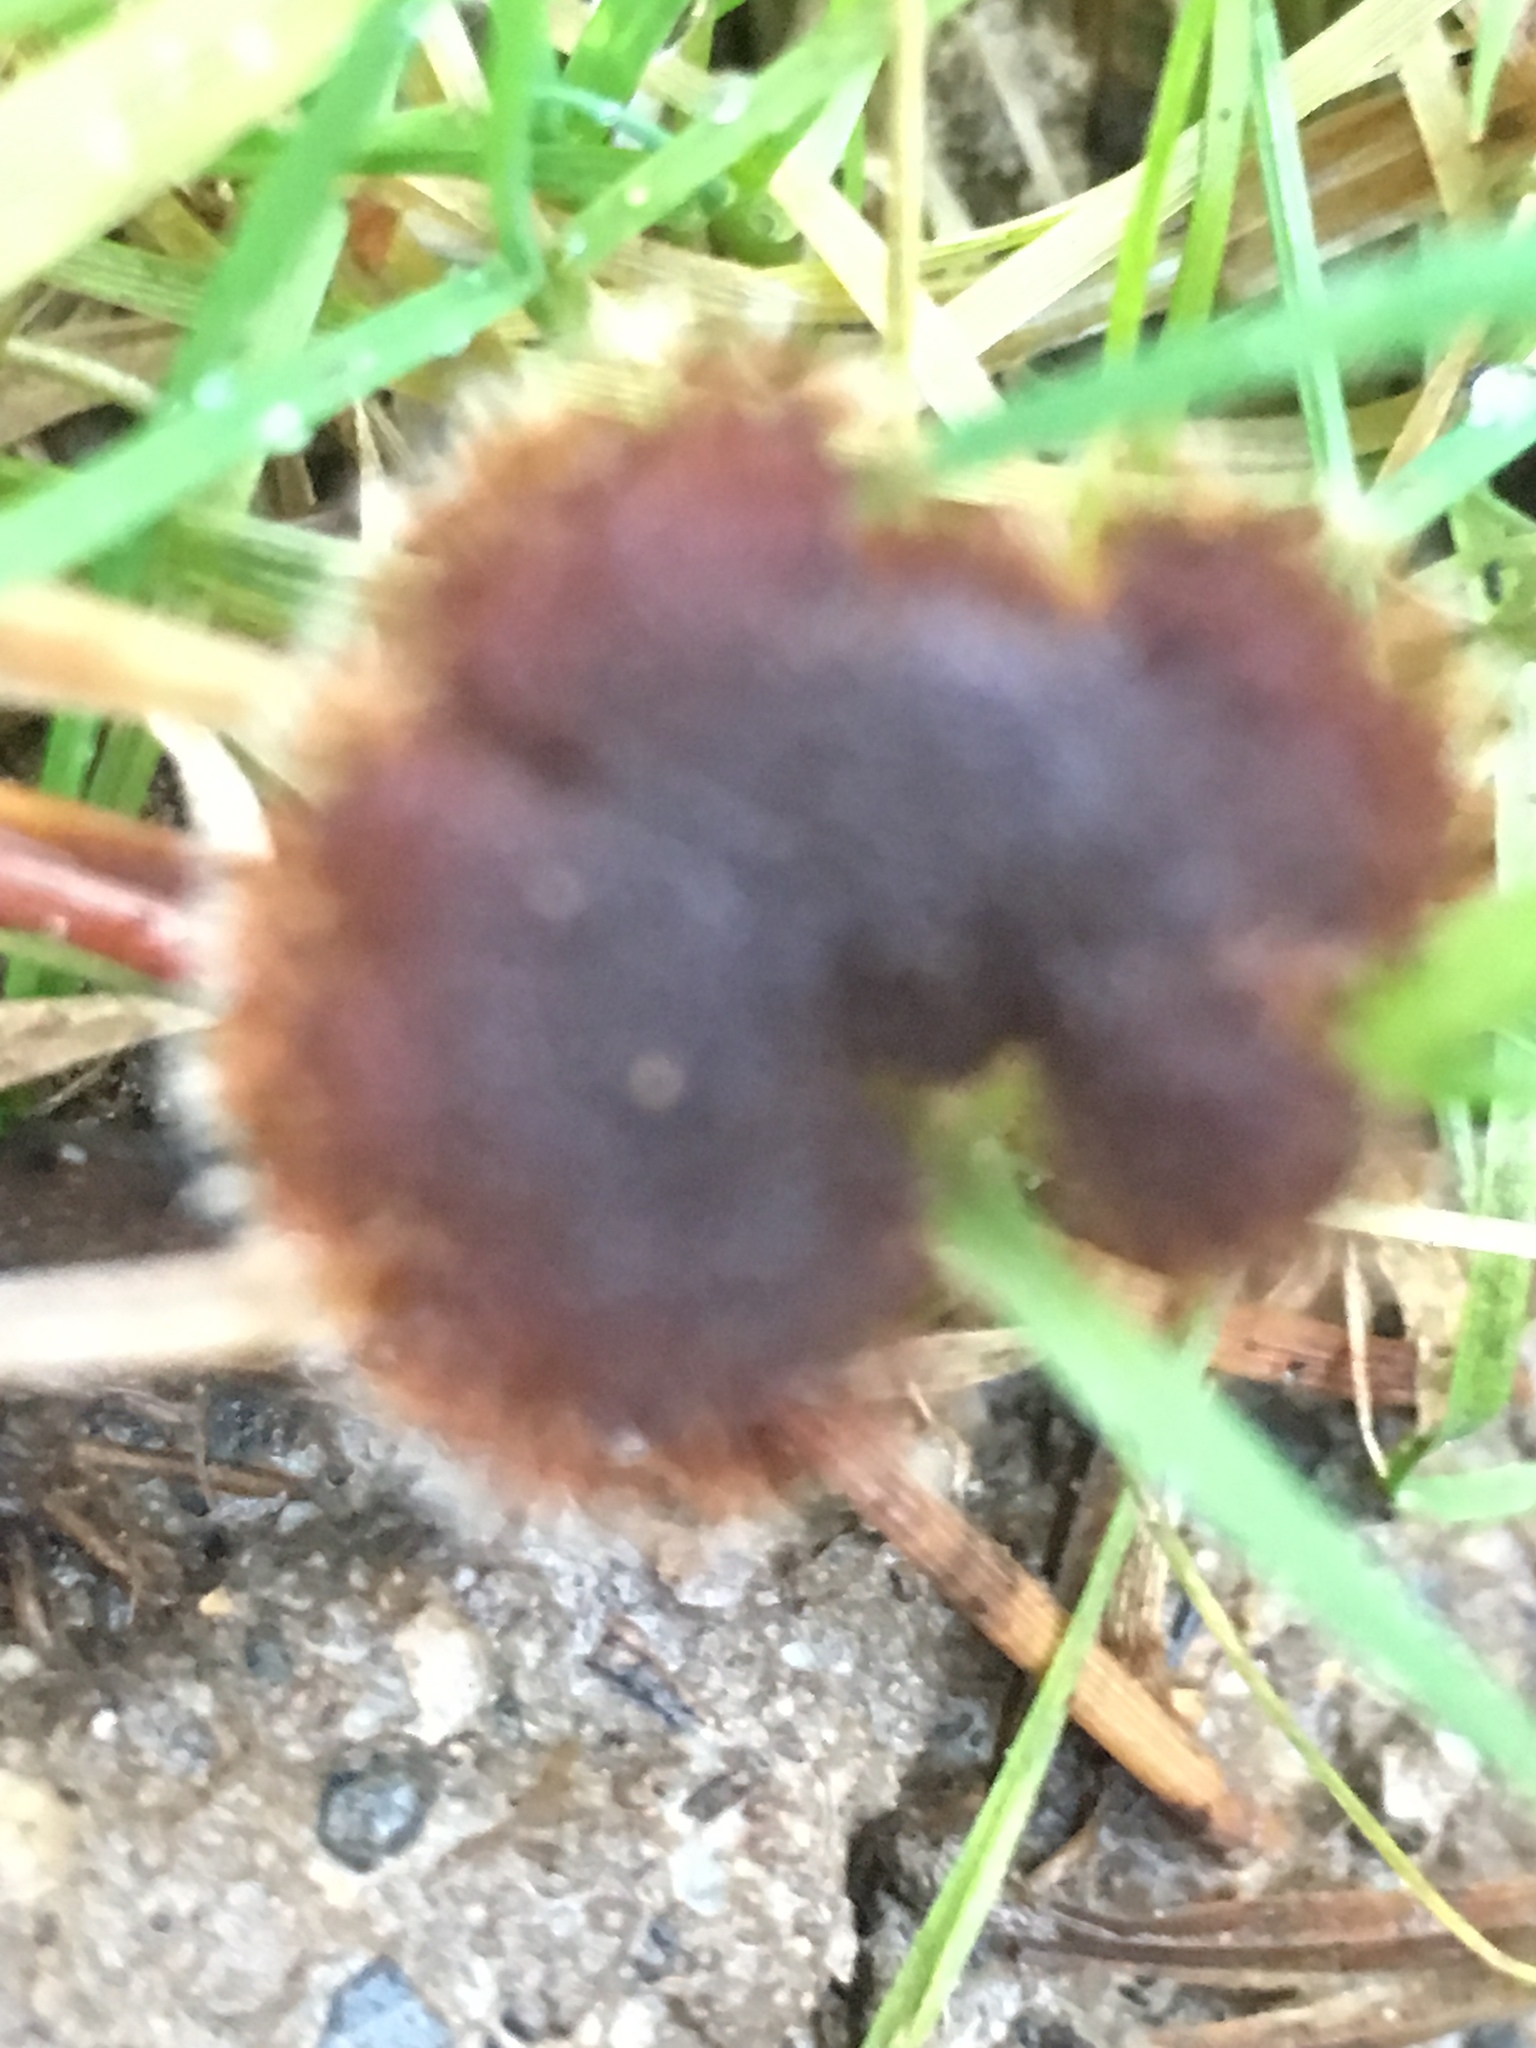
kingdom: Fungi
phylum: Basidiomycota
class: Agaricomycetes
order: Russulales
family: Auriscalpiaceae
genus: Auriscalpium
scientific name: Auriscalpium vulgare
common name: Earpick fungus
